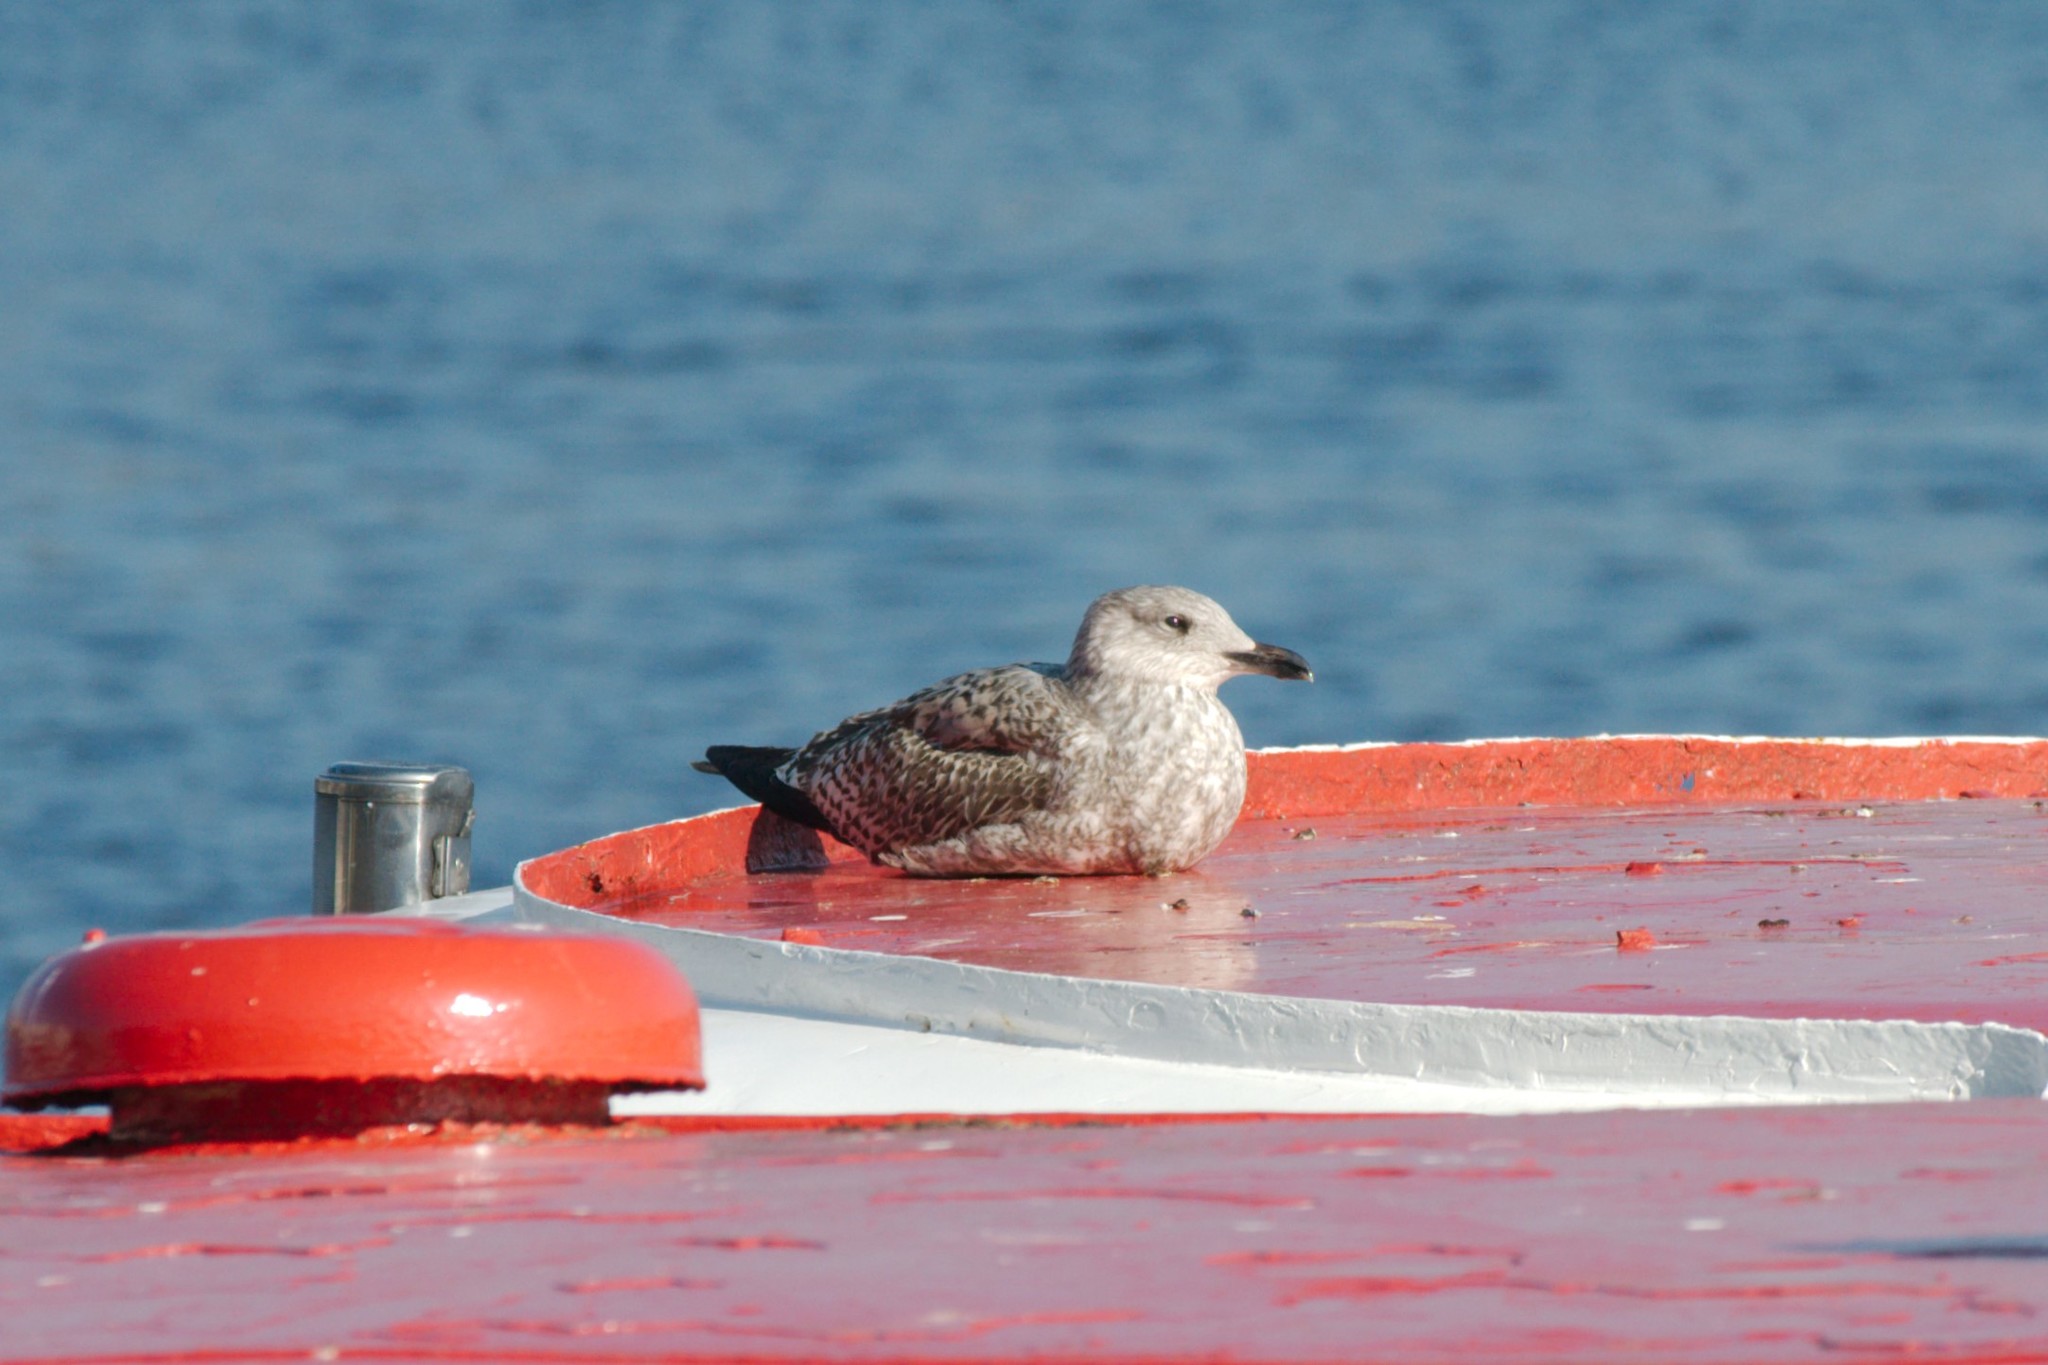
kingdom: Animalia
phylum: Chordata
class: Aves
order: Charadriiformes
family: Laridae
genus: Larus
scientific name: Larus argentatus
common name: Herring gull
